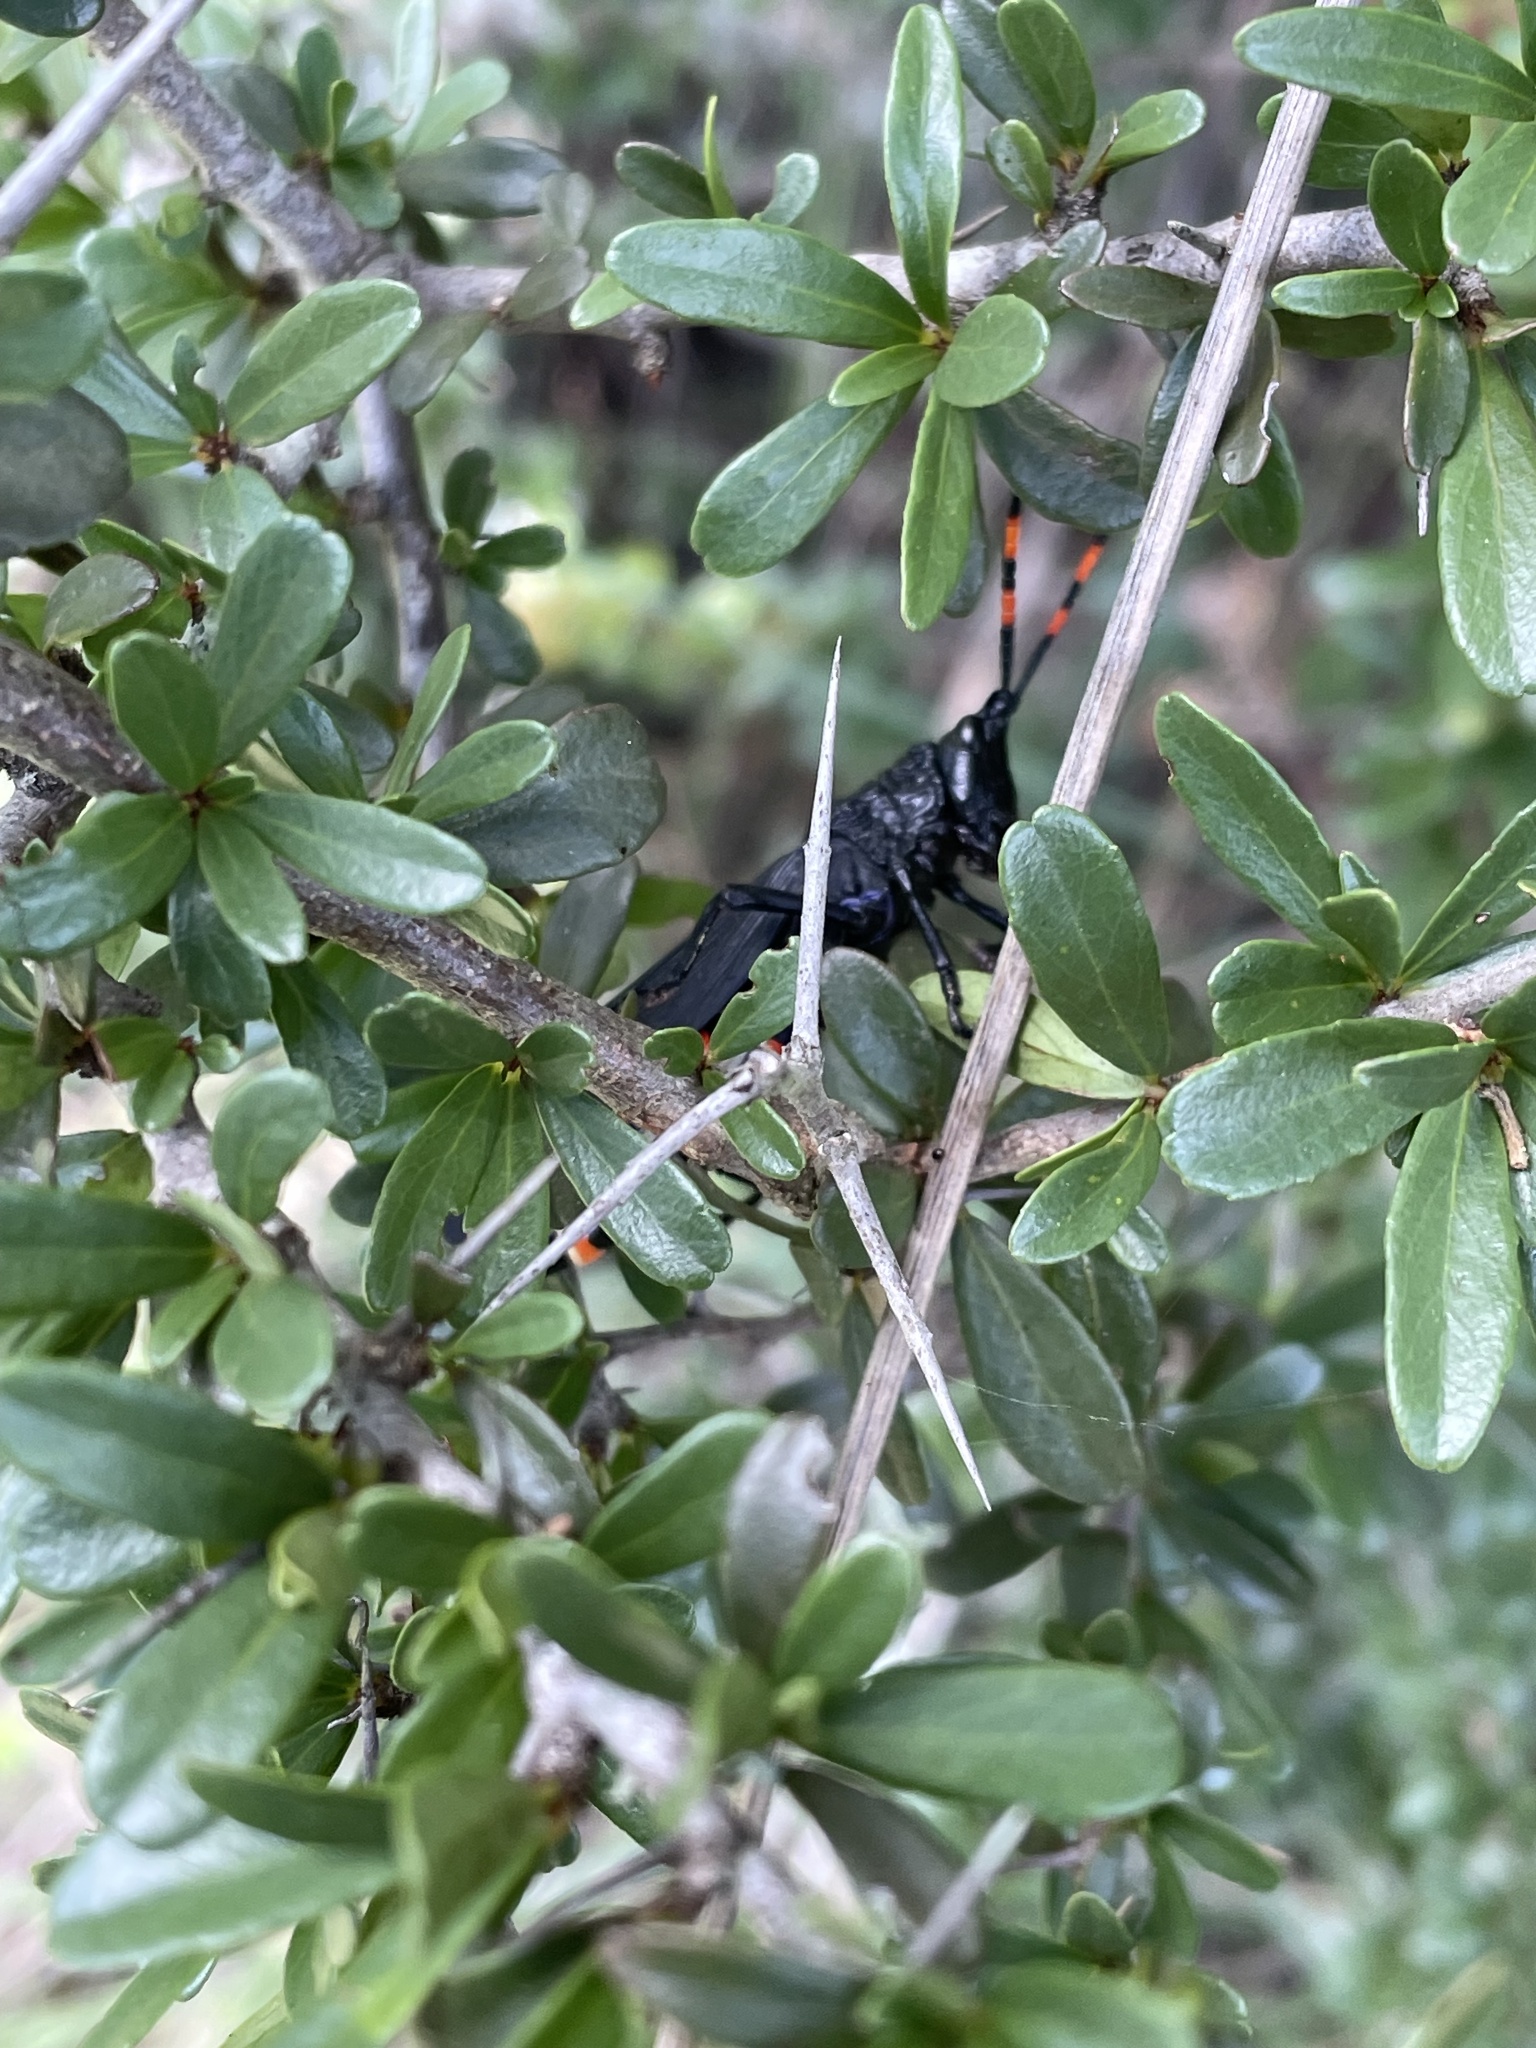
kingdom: Animalia
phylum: Arthropoda
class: Insecta
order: Orthoptera
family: Pyrgomorphidae
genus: Maura
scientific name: Maura rubroornata
